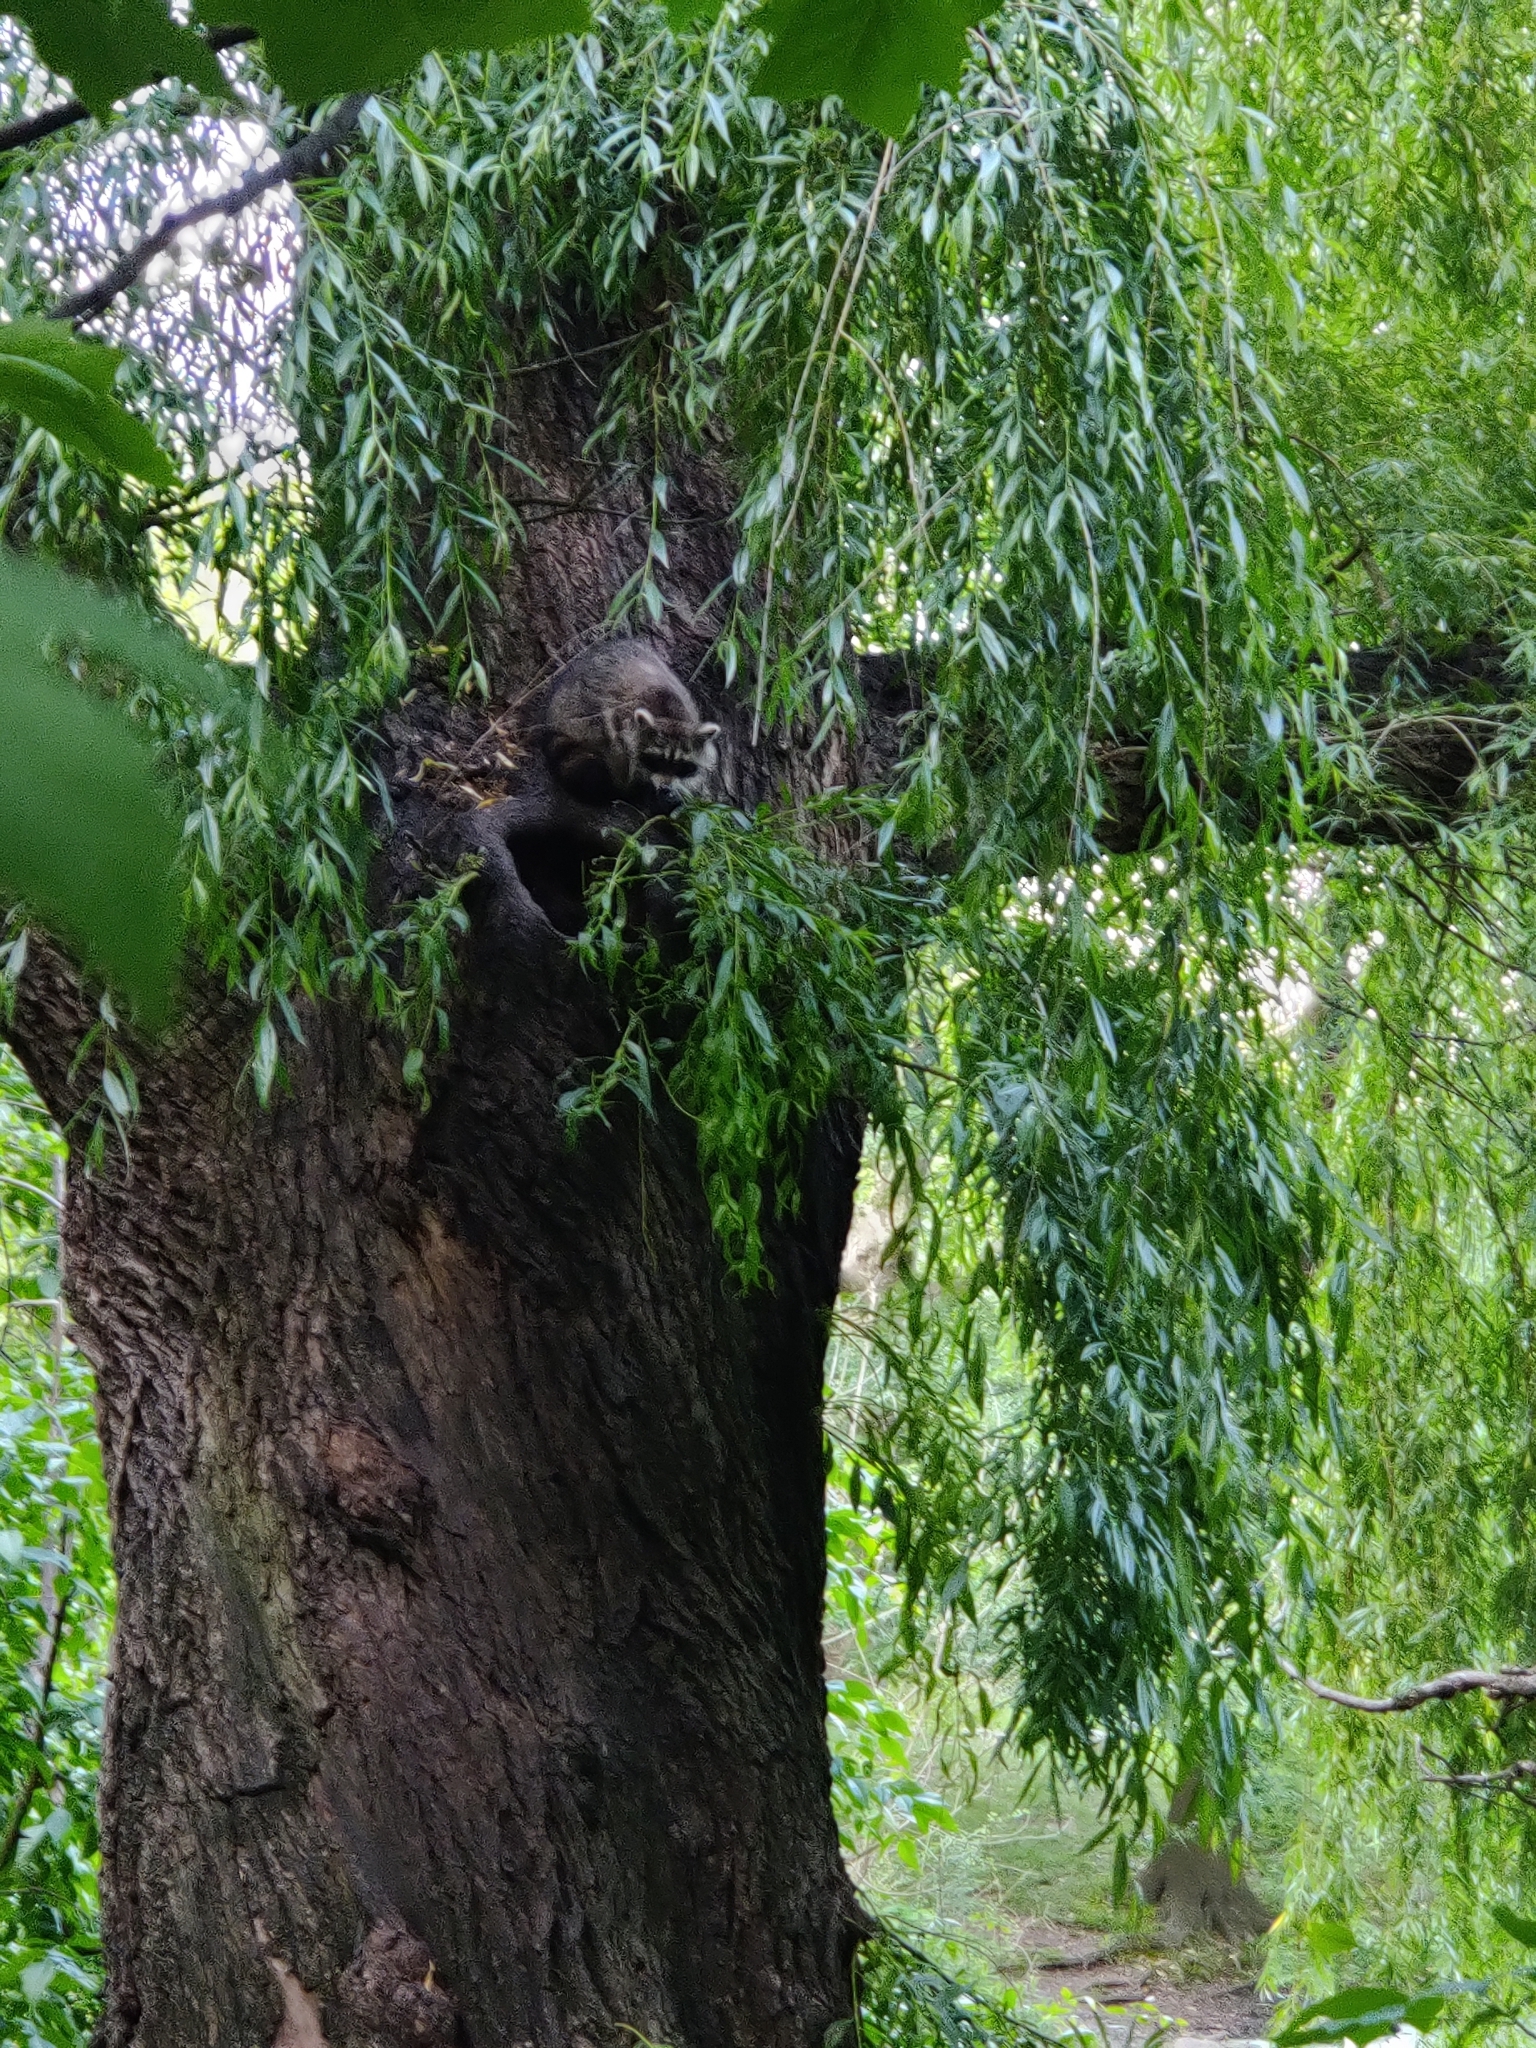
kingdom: Animalia
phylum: Chordata
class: Mammalia
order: Carnivora
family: Procyonidae
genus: Procyon
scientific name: Procyon lotor
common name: Raccoon
